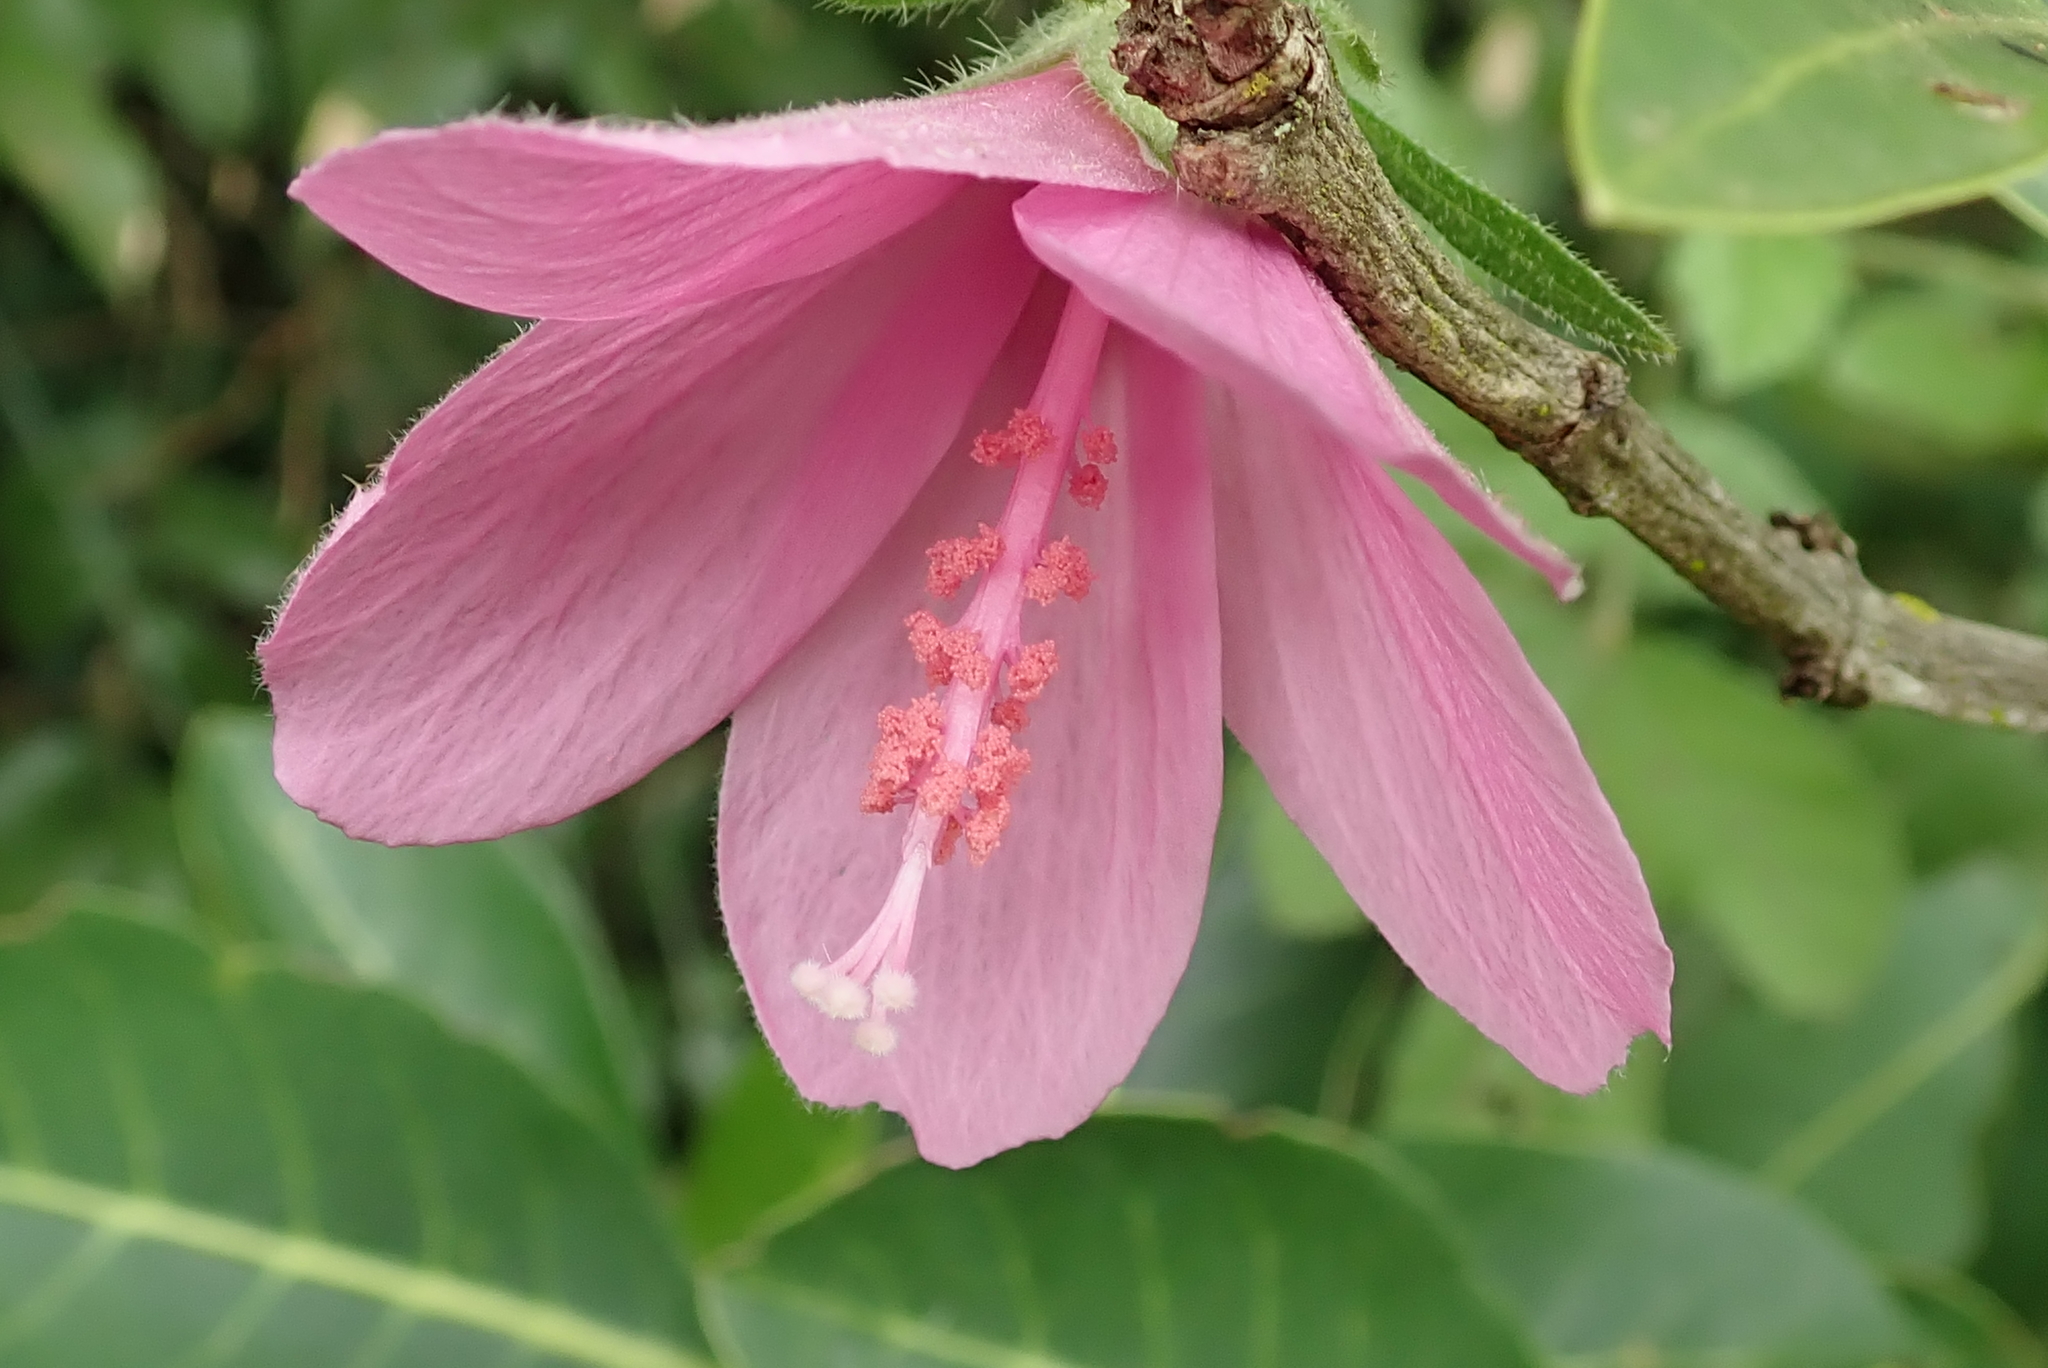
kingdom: Plantae
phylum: Tracheophyta
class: Magnoliopsida
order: Malvales
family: Malvaceae
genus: Hibiscus
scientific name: Hibiscus pedunculatus
